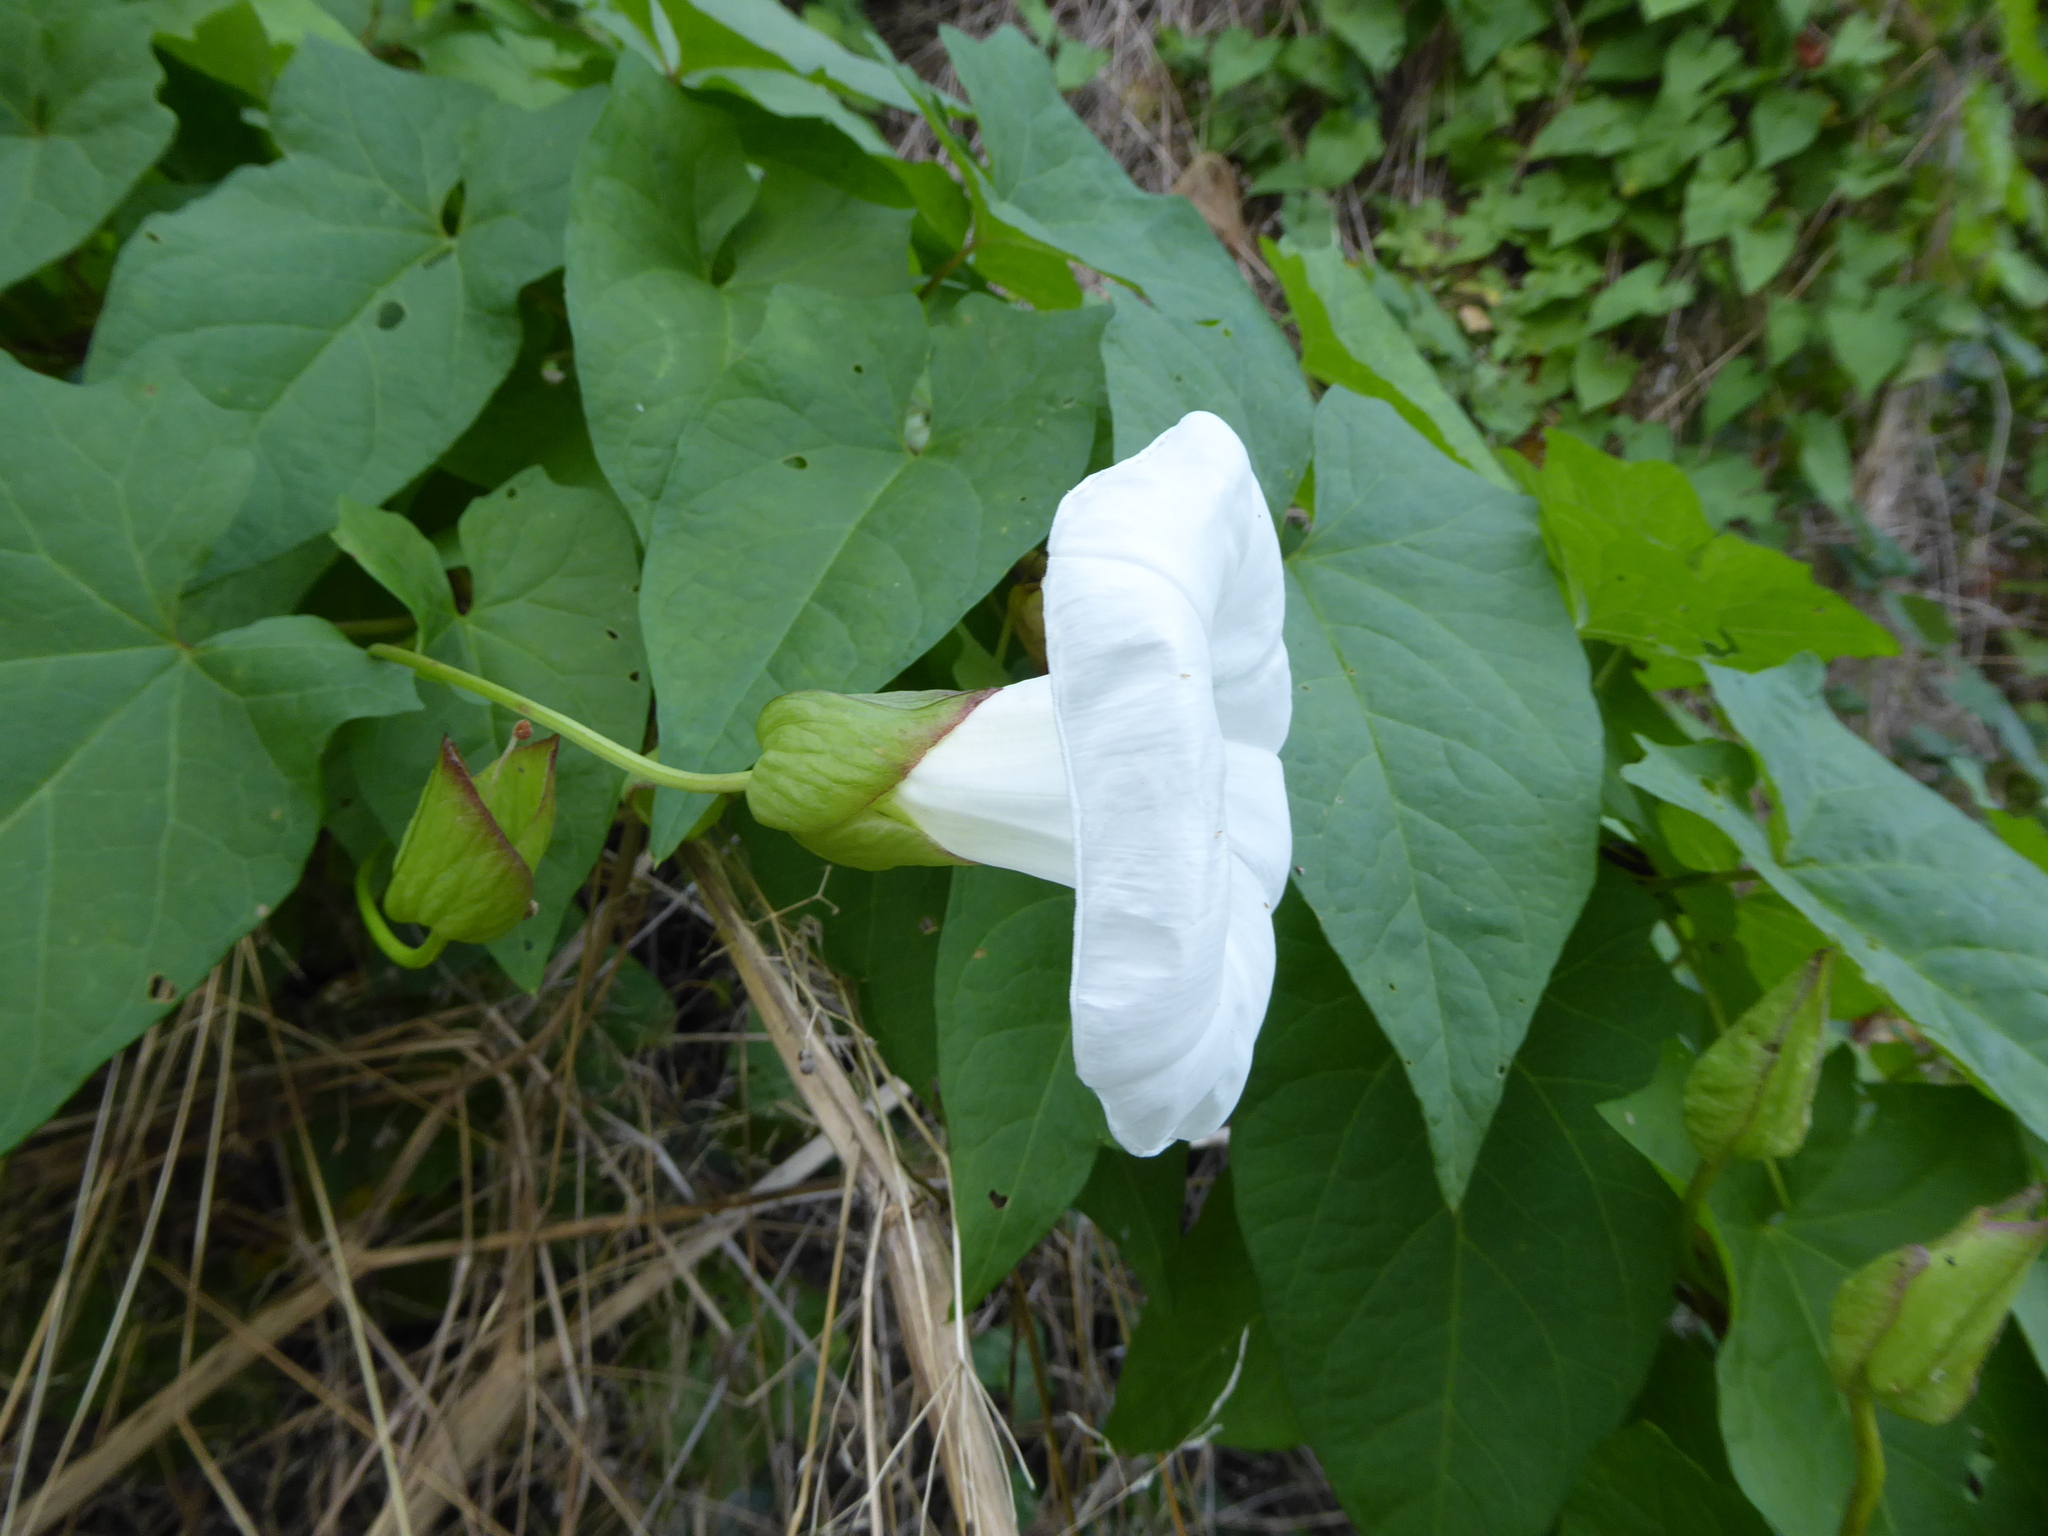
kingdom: Plantae
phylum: Tracheophyta
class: Magnoliopsida
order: Solanales
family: Convolvulaceae
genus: Calystegia
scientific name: Calystegia silvatica
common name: Large bindweed
